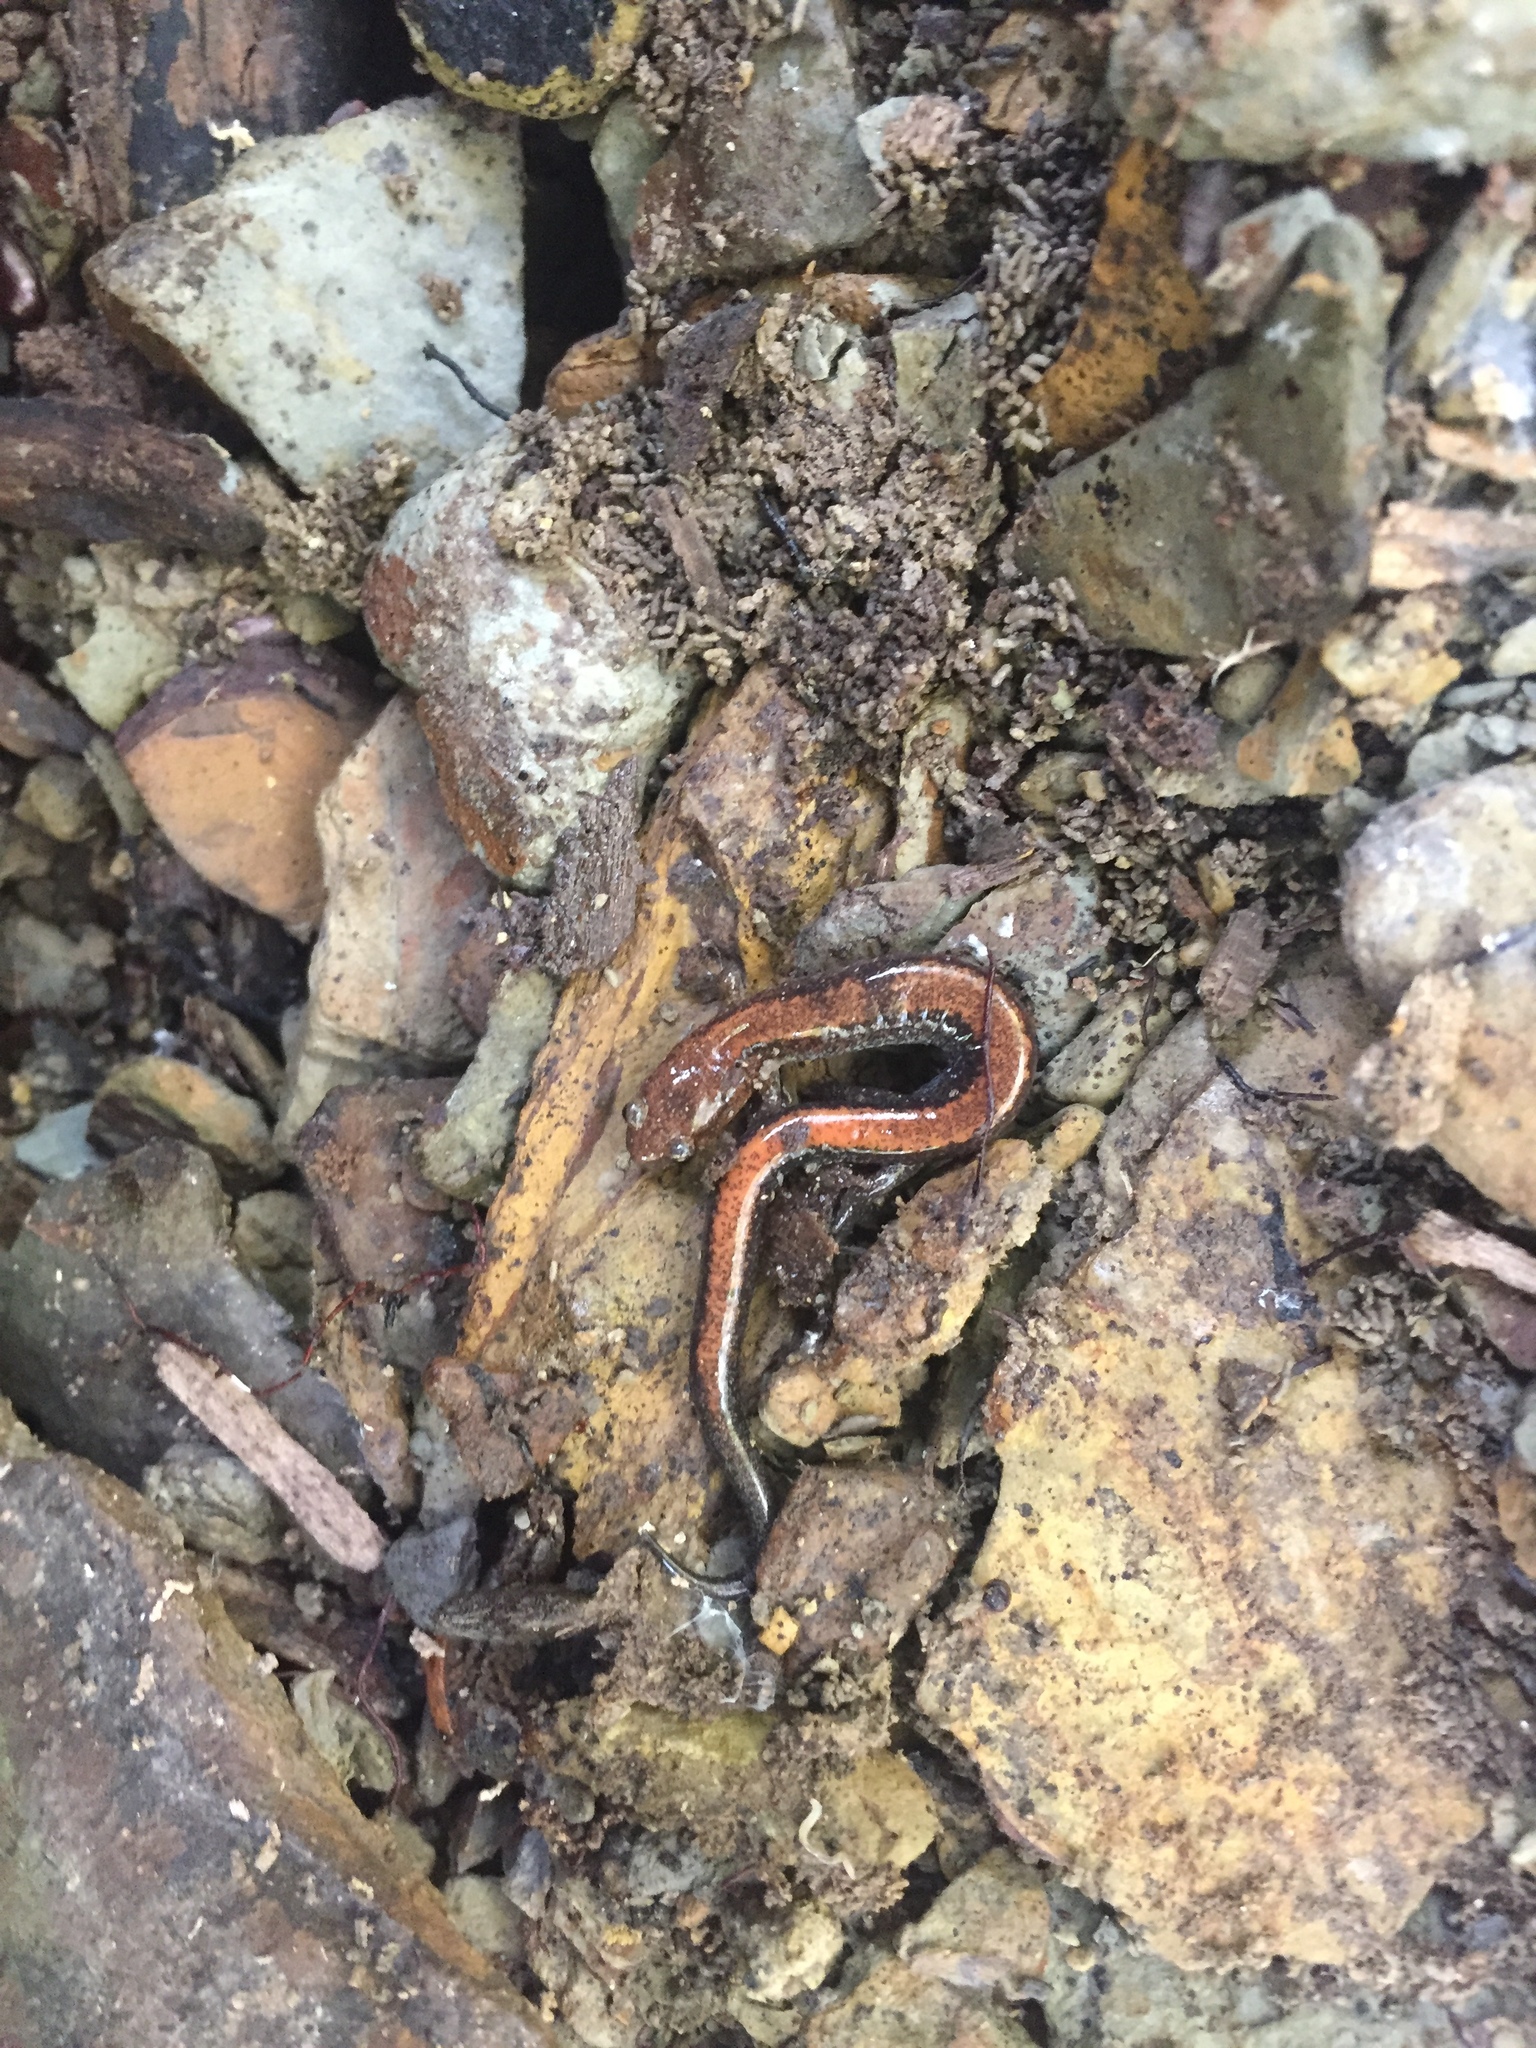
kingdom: Animalia
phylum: Chordata
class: Amphibia
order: Caudata
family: Plethodontidae
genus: Plethodon
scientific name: Plethodon cinereus
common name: Redback salamander
